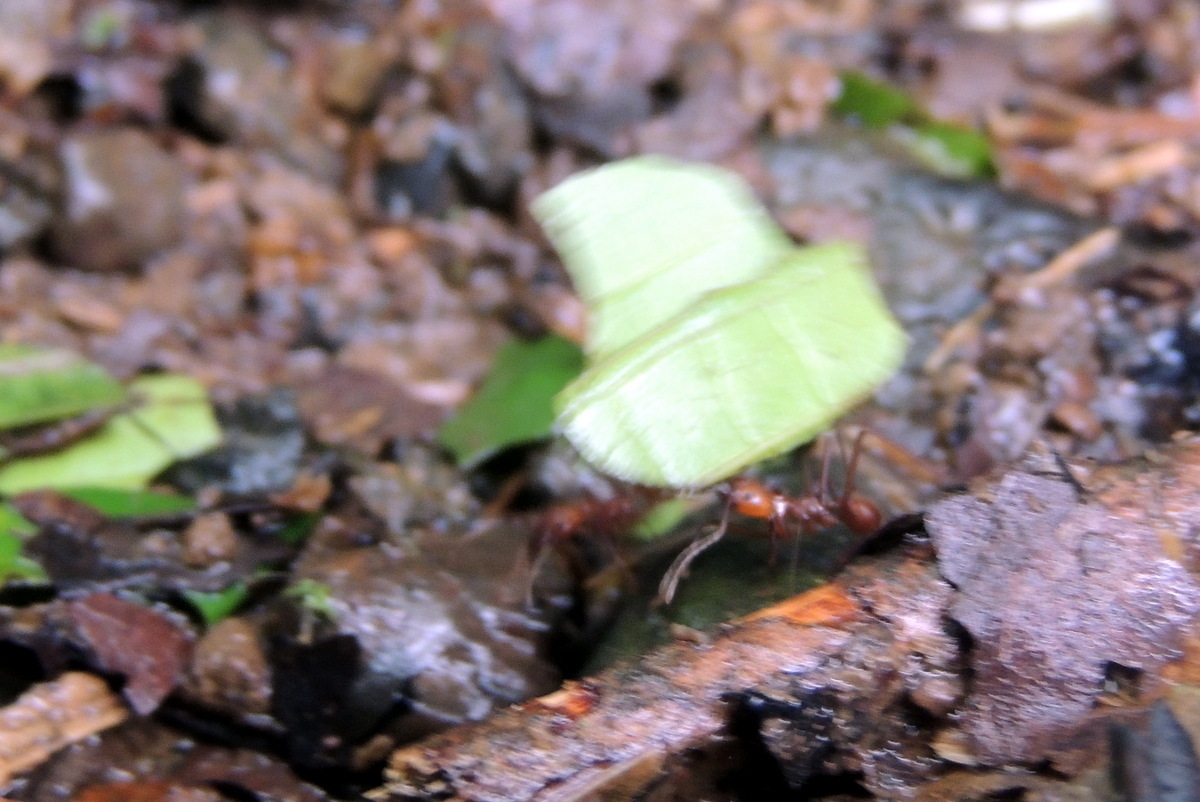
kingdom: Animalia
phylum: Arthropoda
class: Insecta
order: Hymenoptera
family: Formicidae
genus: Atta
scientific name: Atta cephalotes
